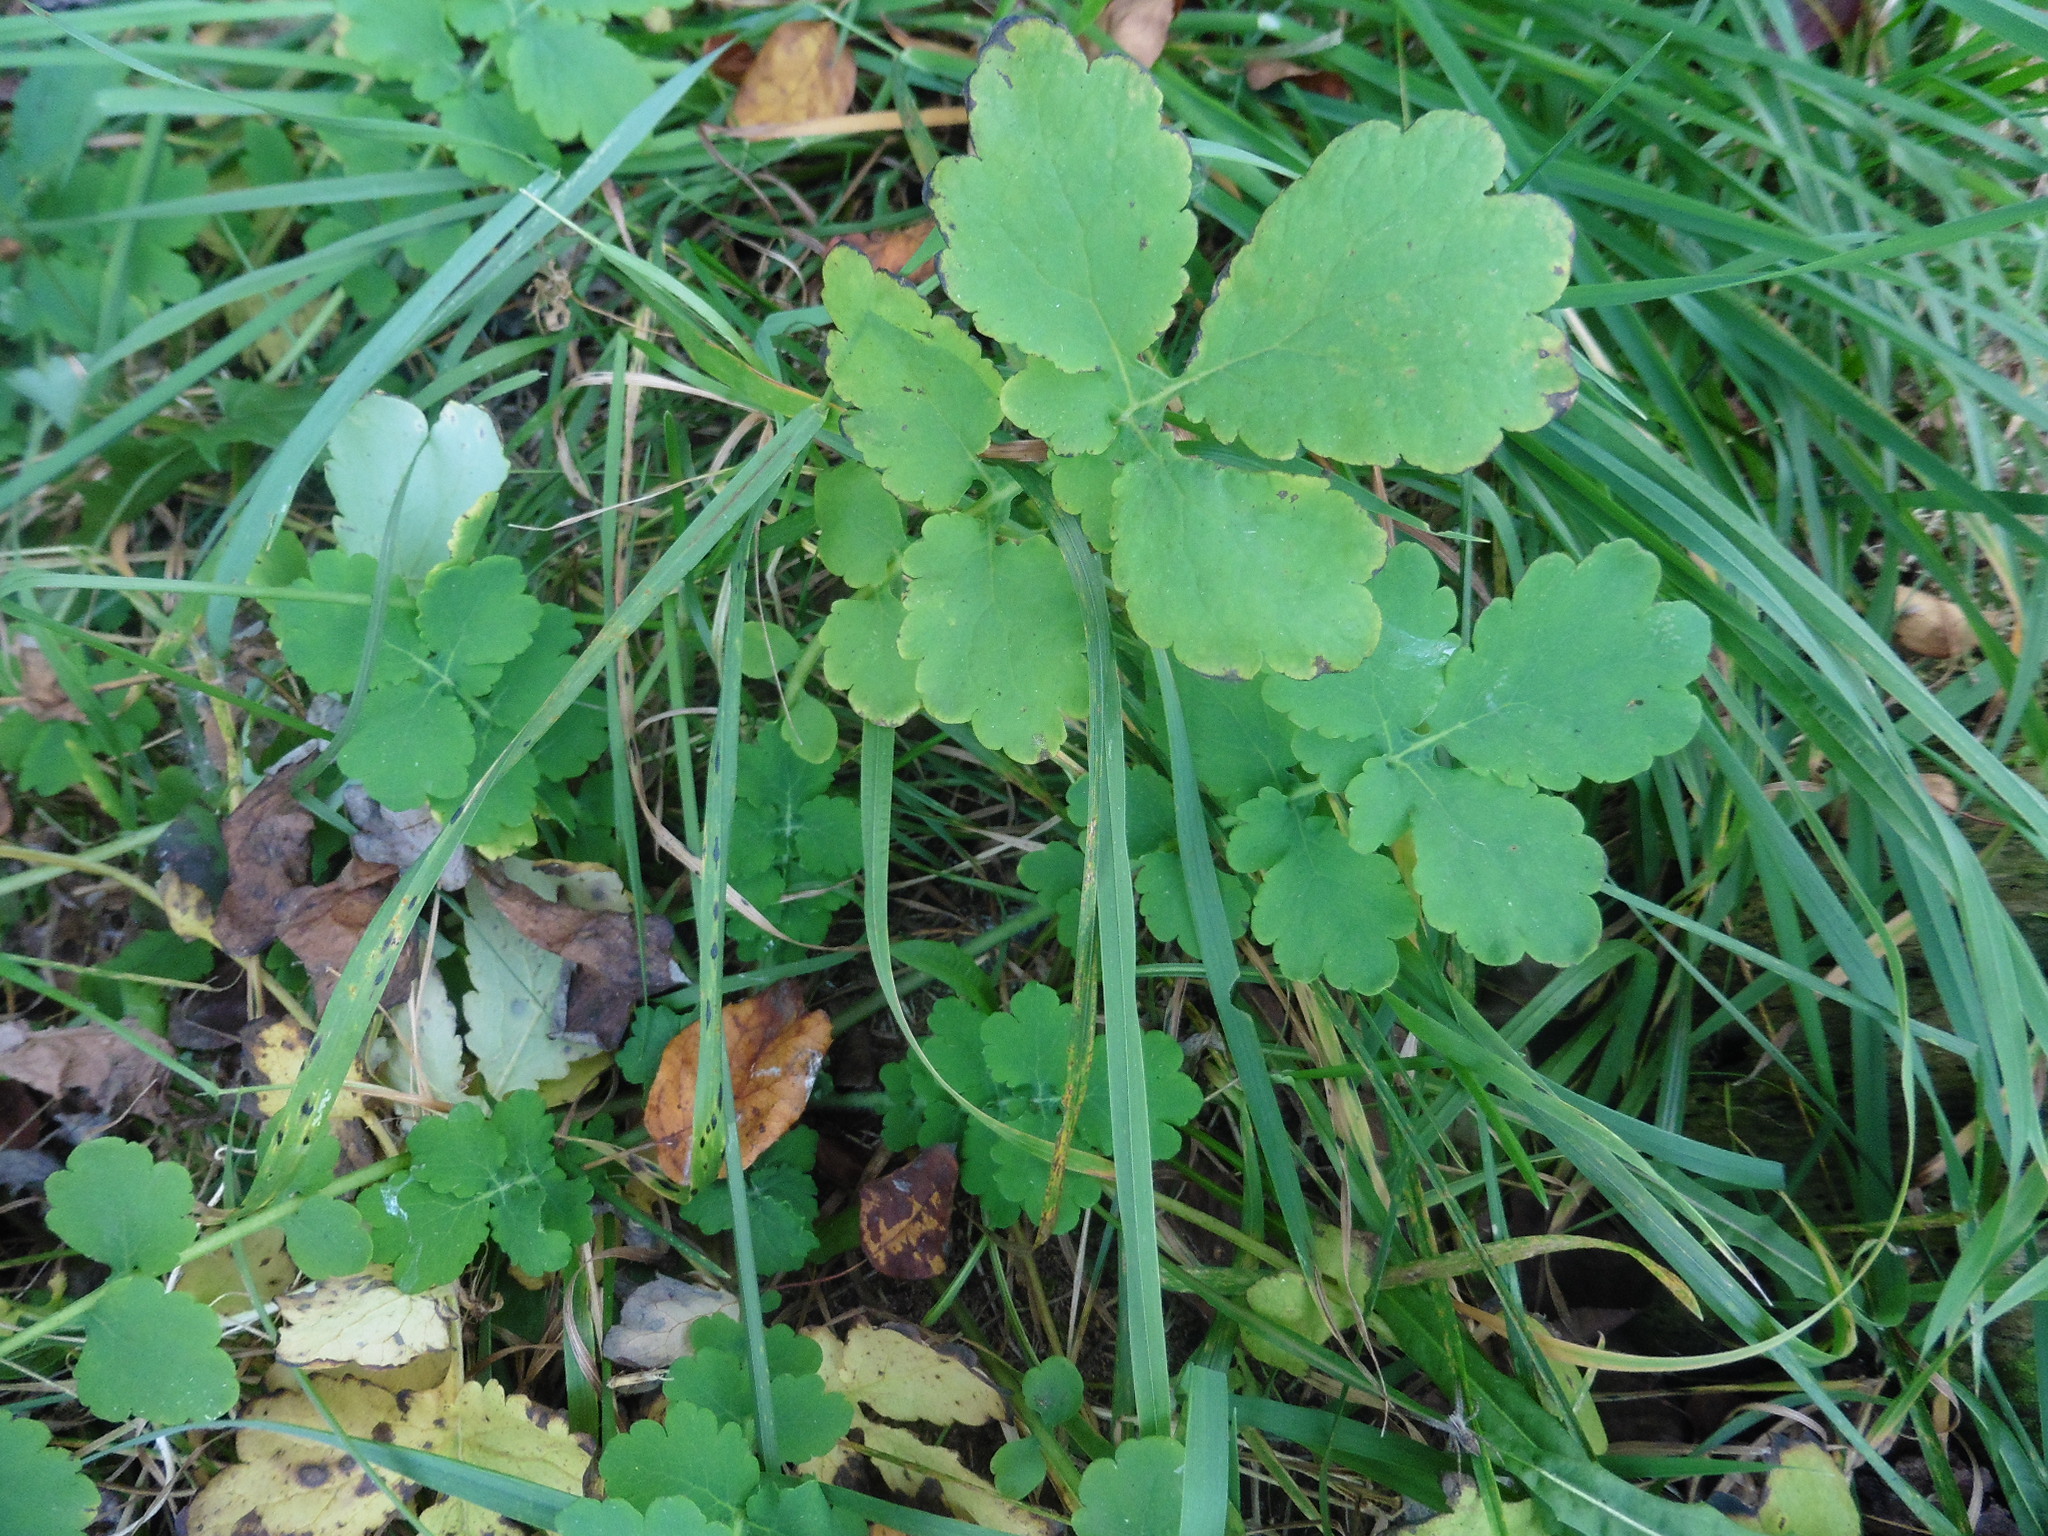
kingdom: Plantae
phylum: Tracheophyta
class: Magnoliopsida
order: Ranunculales
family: Papaveraceae
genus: Chelidonium
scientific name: Chelidonium majus
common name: Greater celandine
